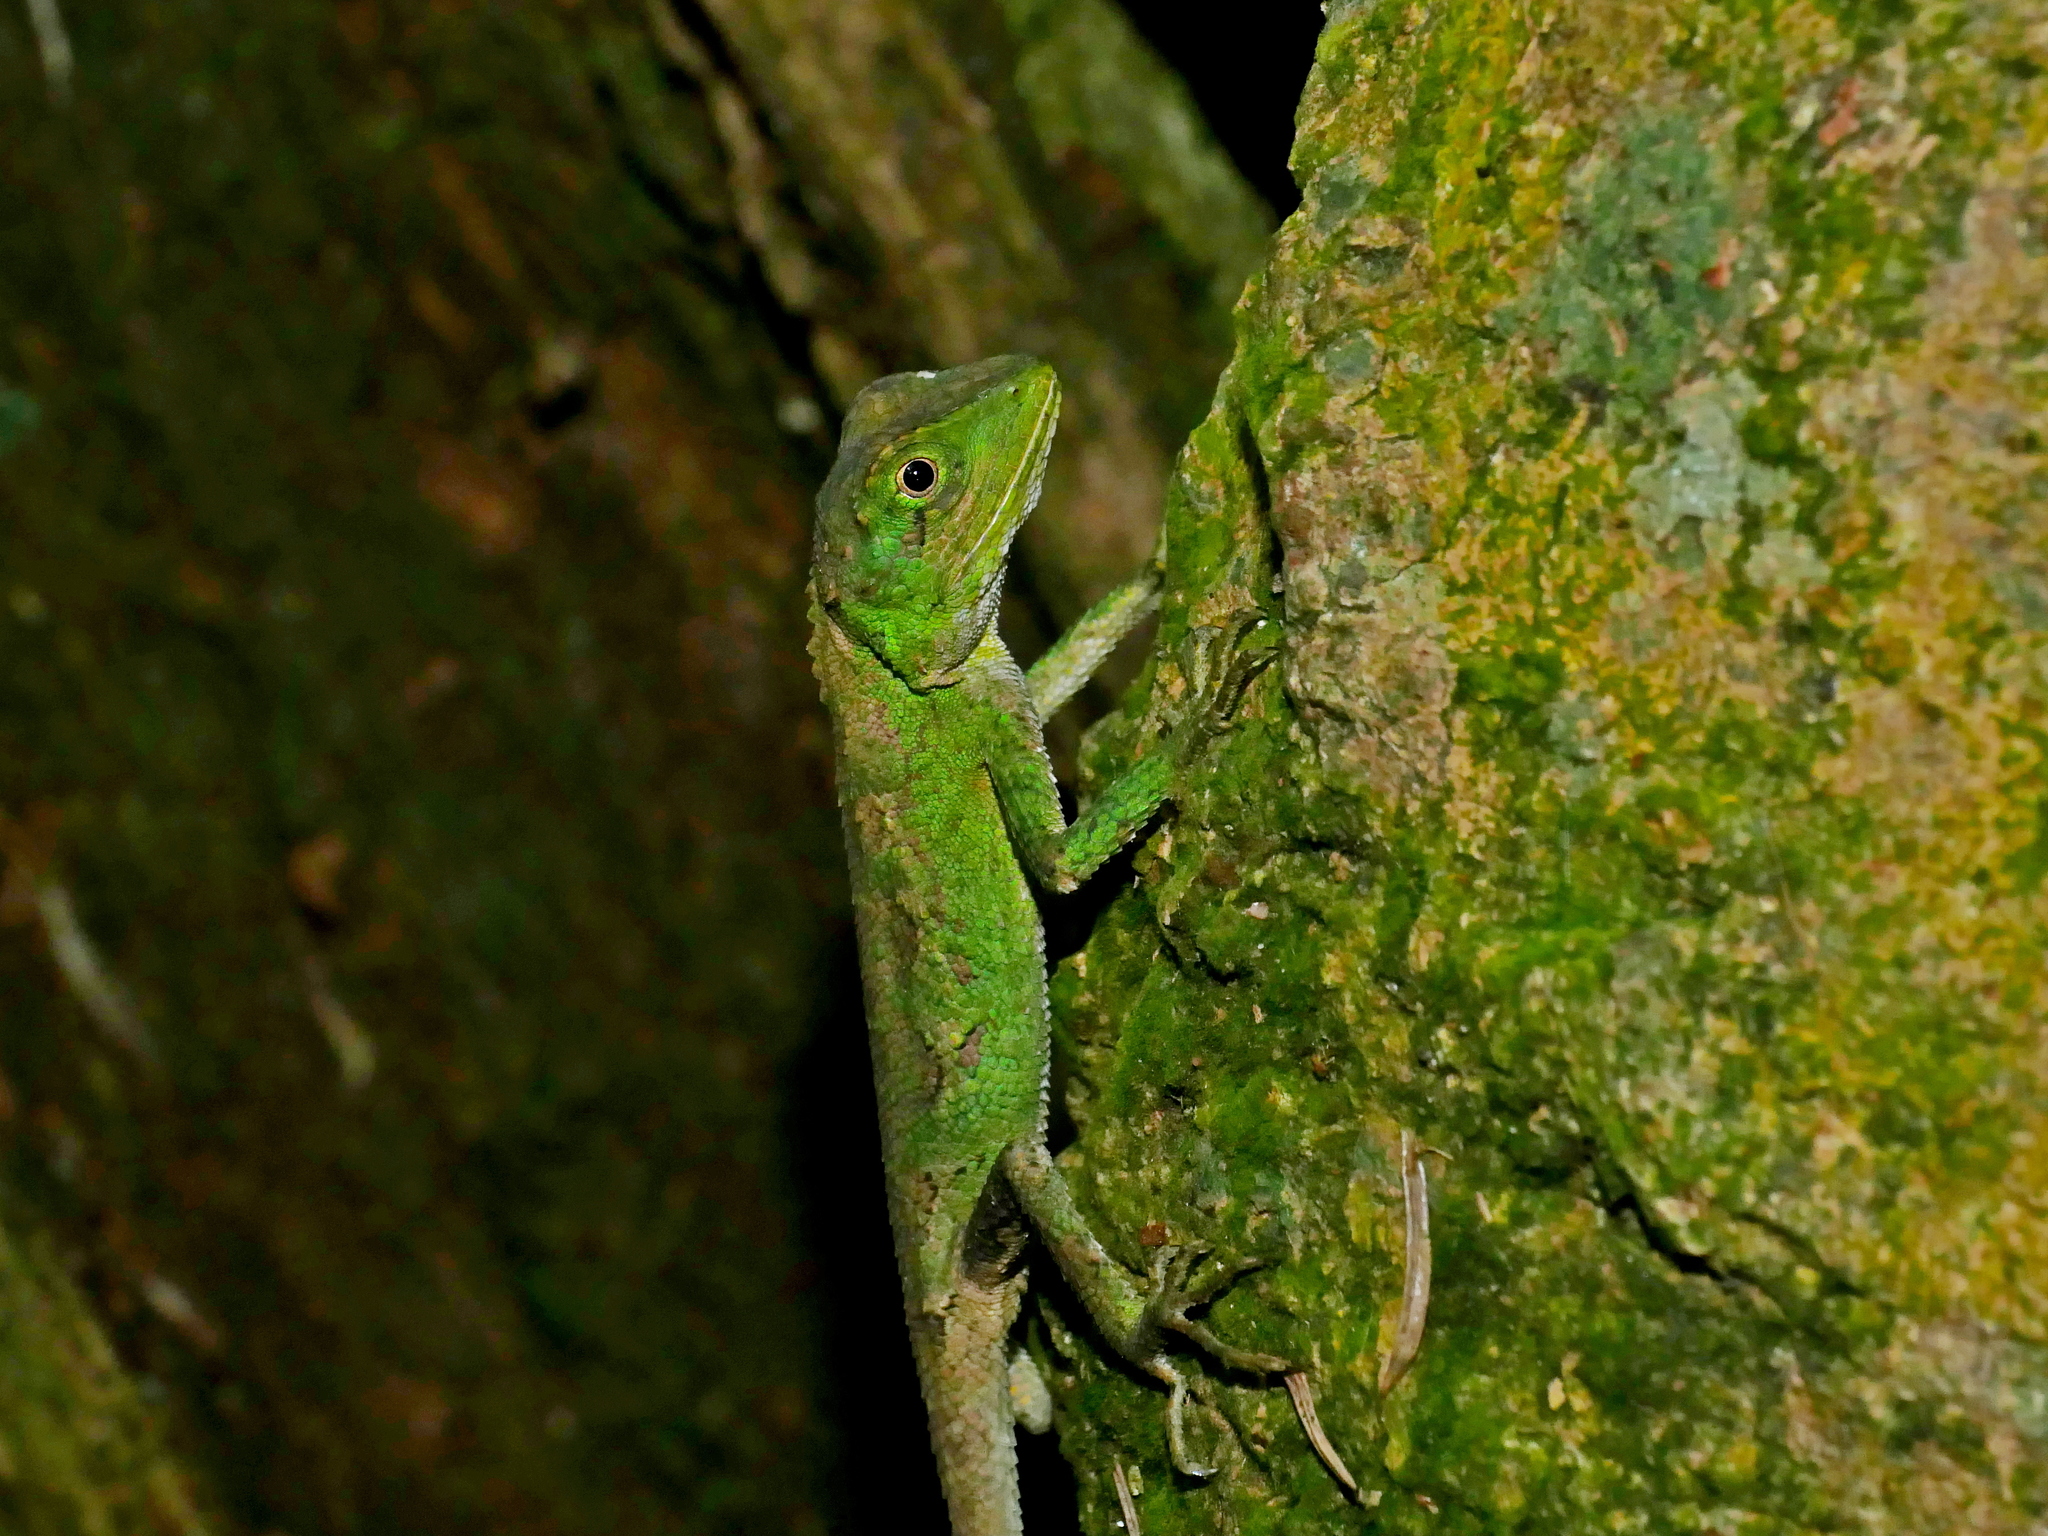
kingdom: Fungi
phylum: Basidiomycota
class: Agaricomycetes
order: Boletales
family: Diplocystidiaceae
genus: Diploderma
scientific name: Diploderma polygonatum
